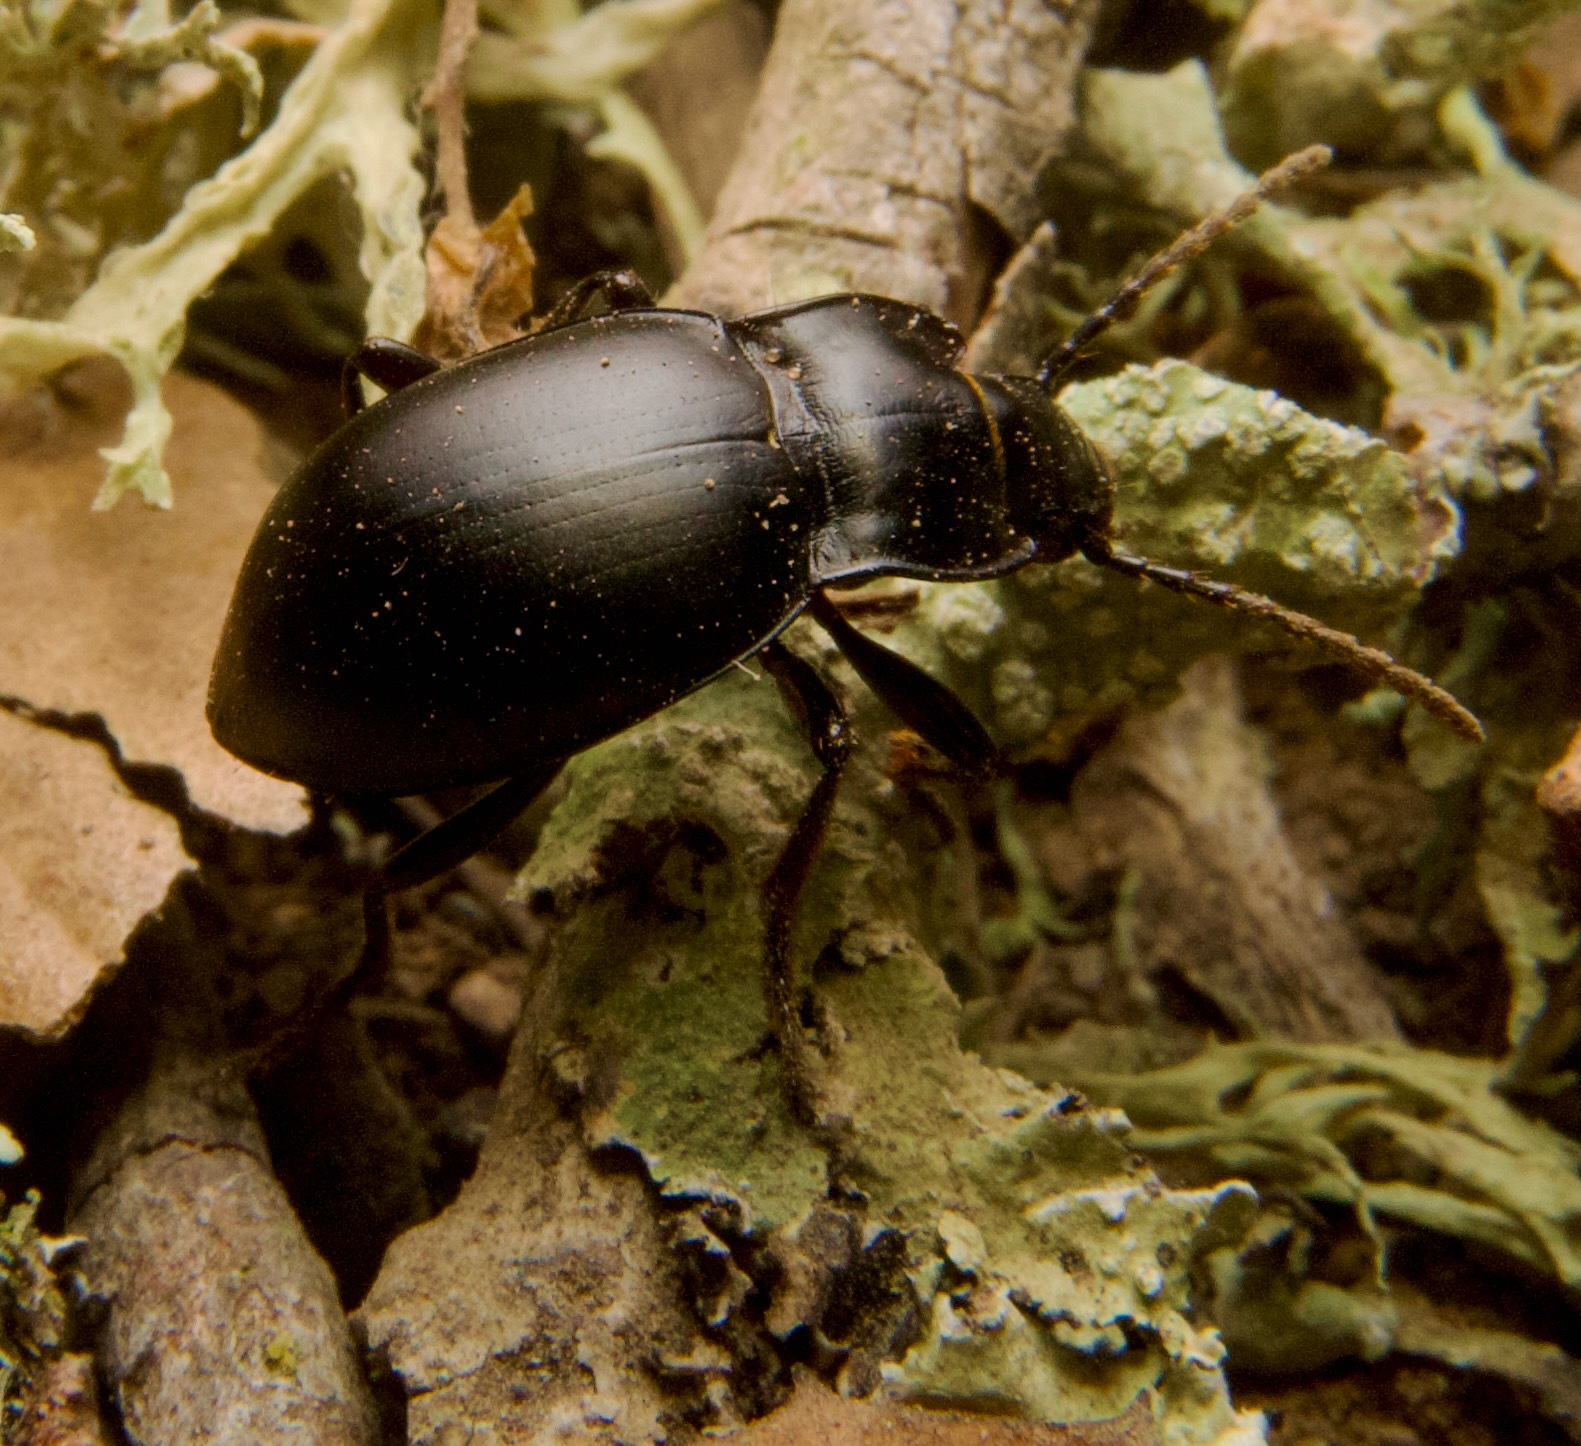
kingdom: Animalia
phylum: Arthropoda
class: Insecta
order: Coleoptera
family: Carabidae
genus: Metrius
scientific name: Metrius contractus
